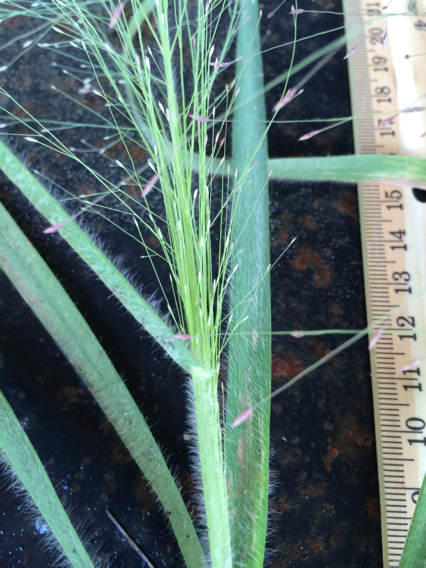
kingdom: Plantae
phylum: Tracheophyta
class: Liliopsida
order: Poales
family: Poaceae
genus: Eragrostis
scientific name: Eragrostis hirsuta
